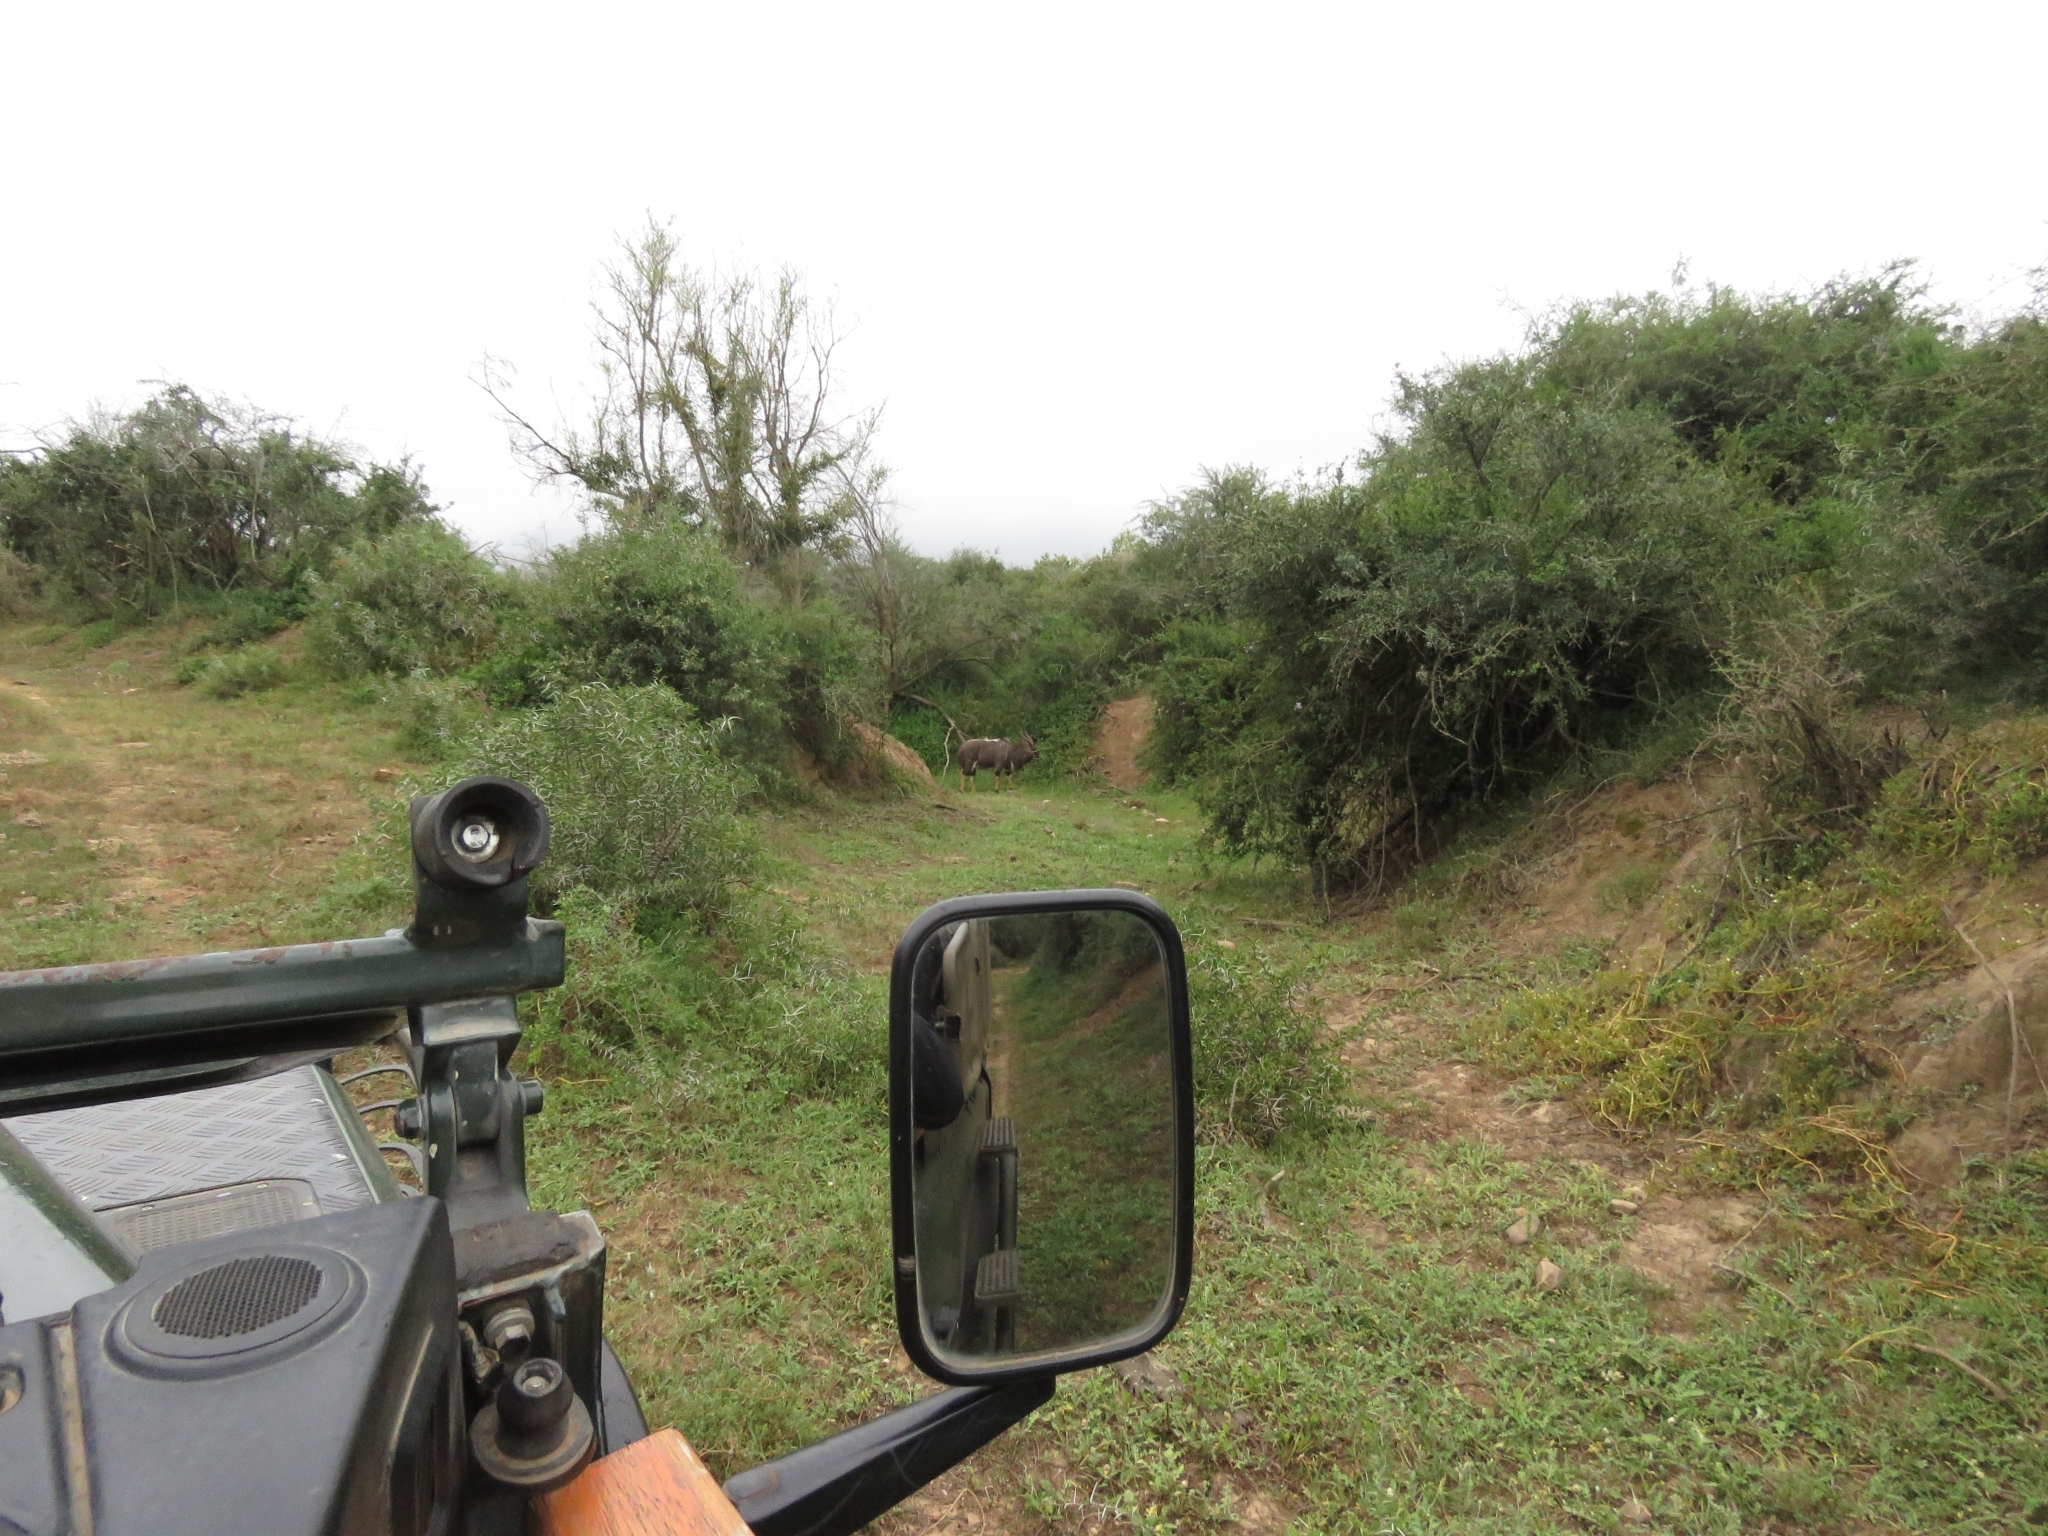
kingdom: Animalia
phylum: Chordata
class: Mammalia
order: Artiodactyla
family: Bovidae
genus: Tragelaphus
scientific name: Tragelaphus angasii
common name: Nyala
